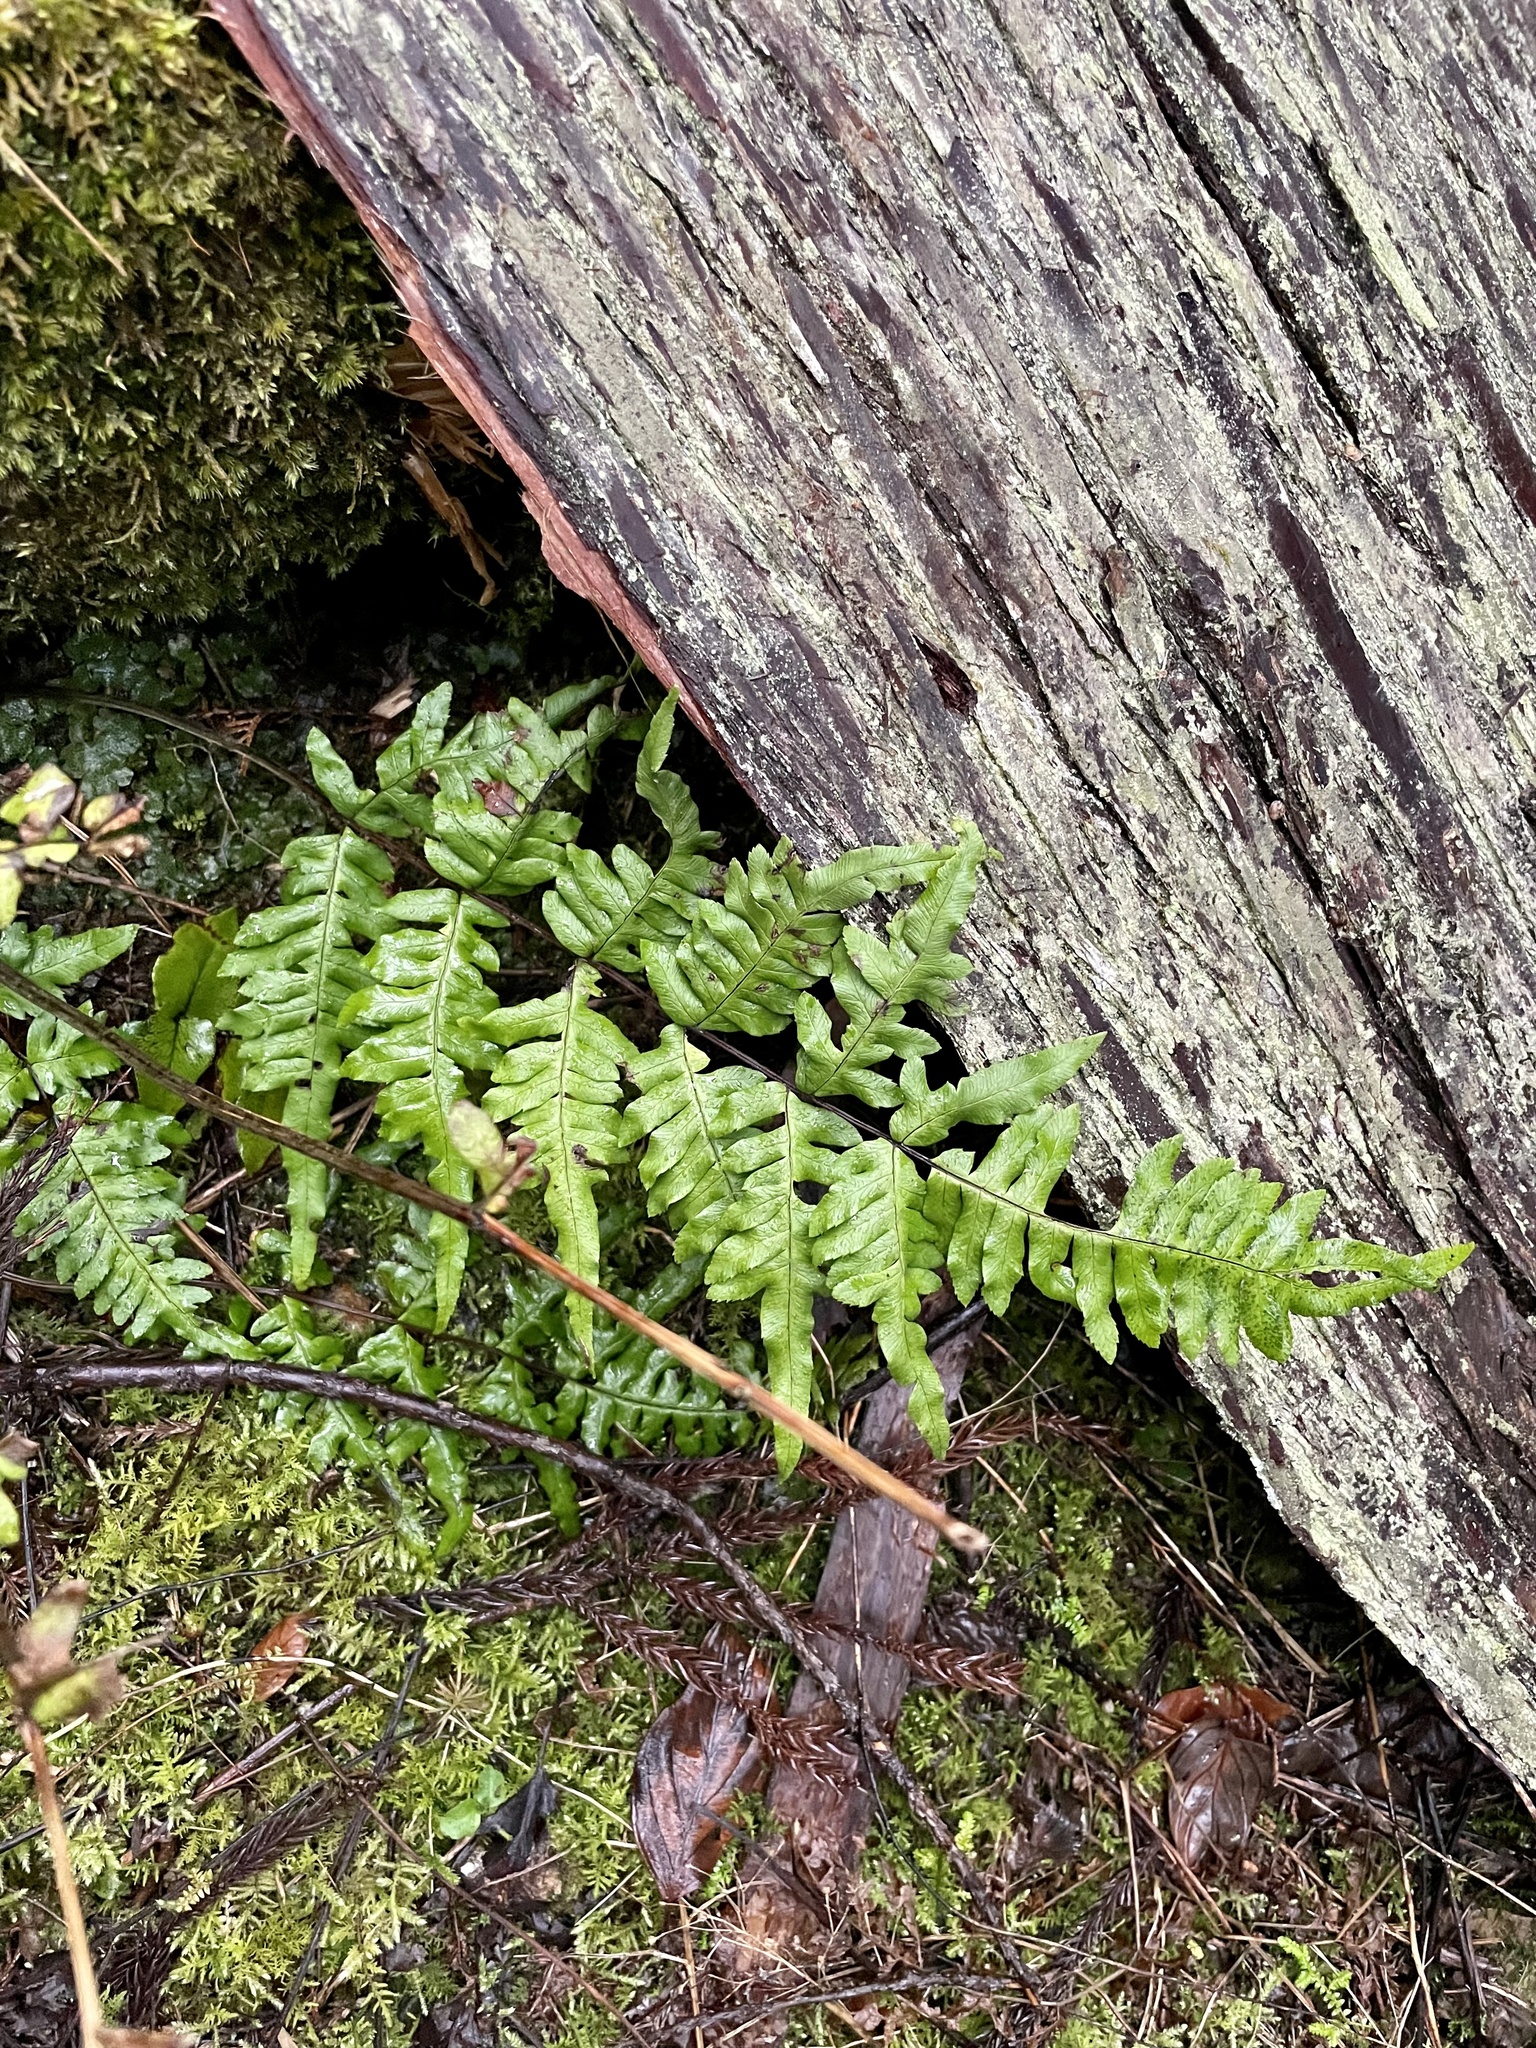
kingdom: Plantae
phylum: Tracheophyta
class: Polypodiopsida
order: Polypodiales
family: Pteridaceae
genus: Pteris
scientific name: Pteris terminalis
